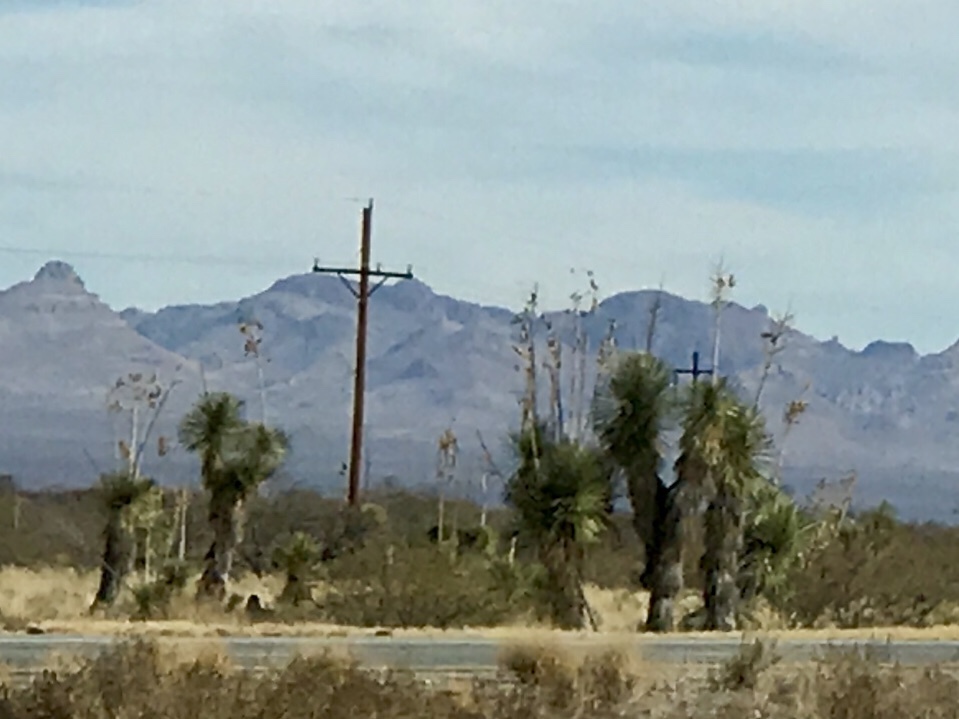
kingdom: Plantae
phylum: Tracheophyta
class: Liliopsida
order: Asparagales
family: Asparagaceae
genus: Yucca
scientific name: Yucca elata
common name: Palmella
